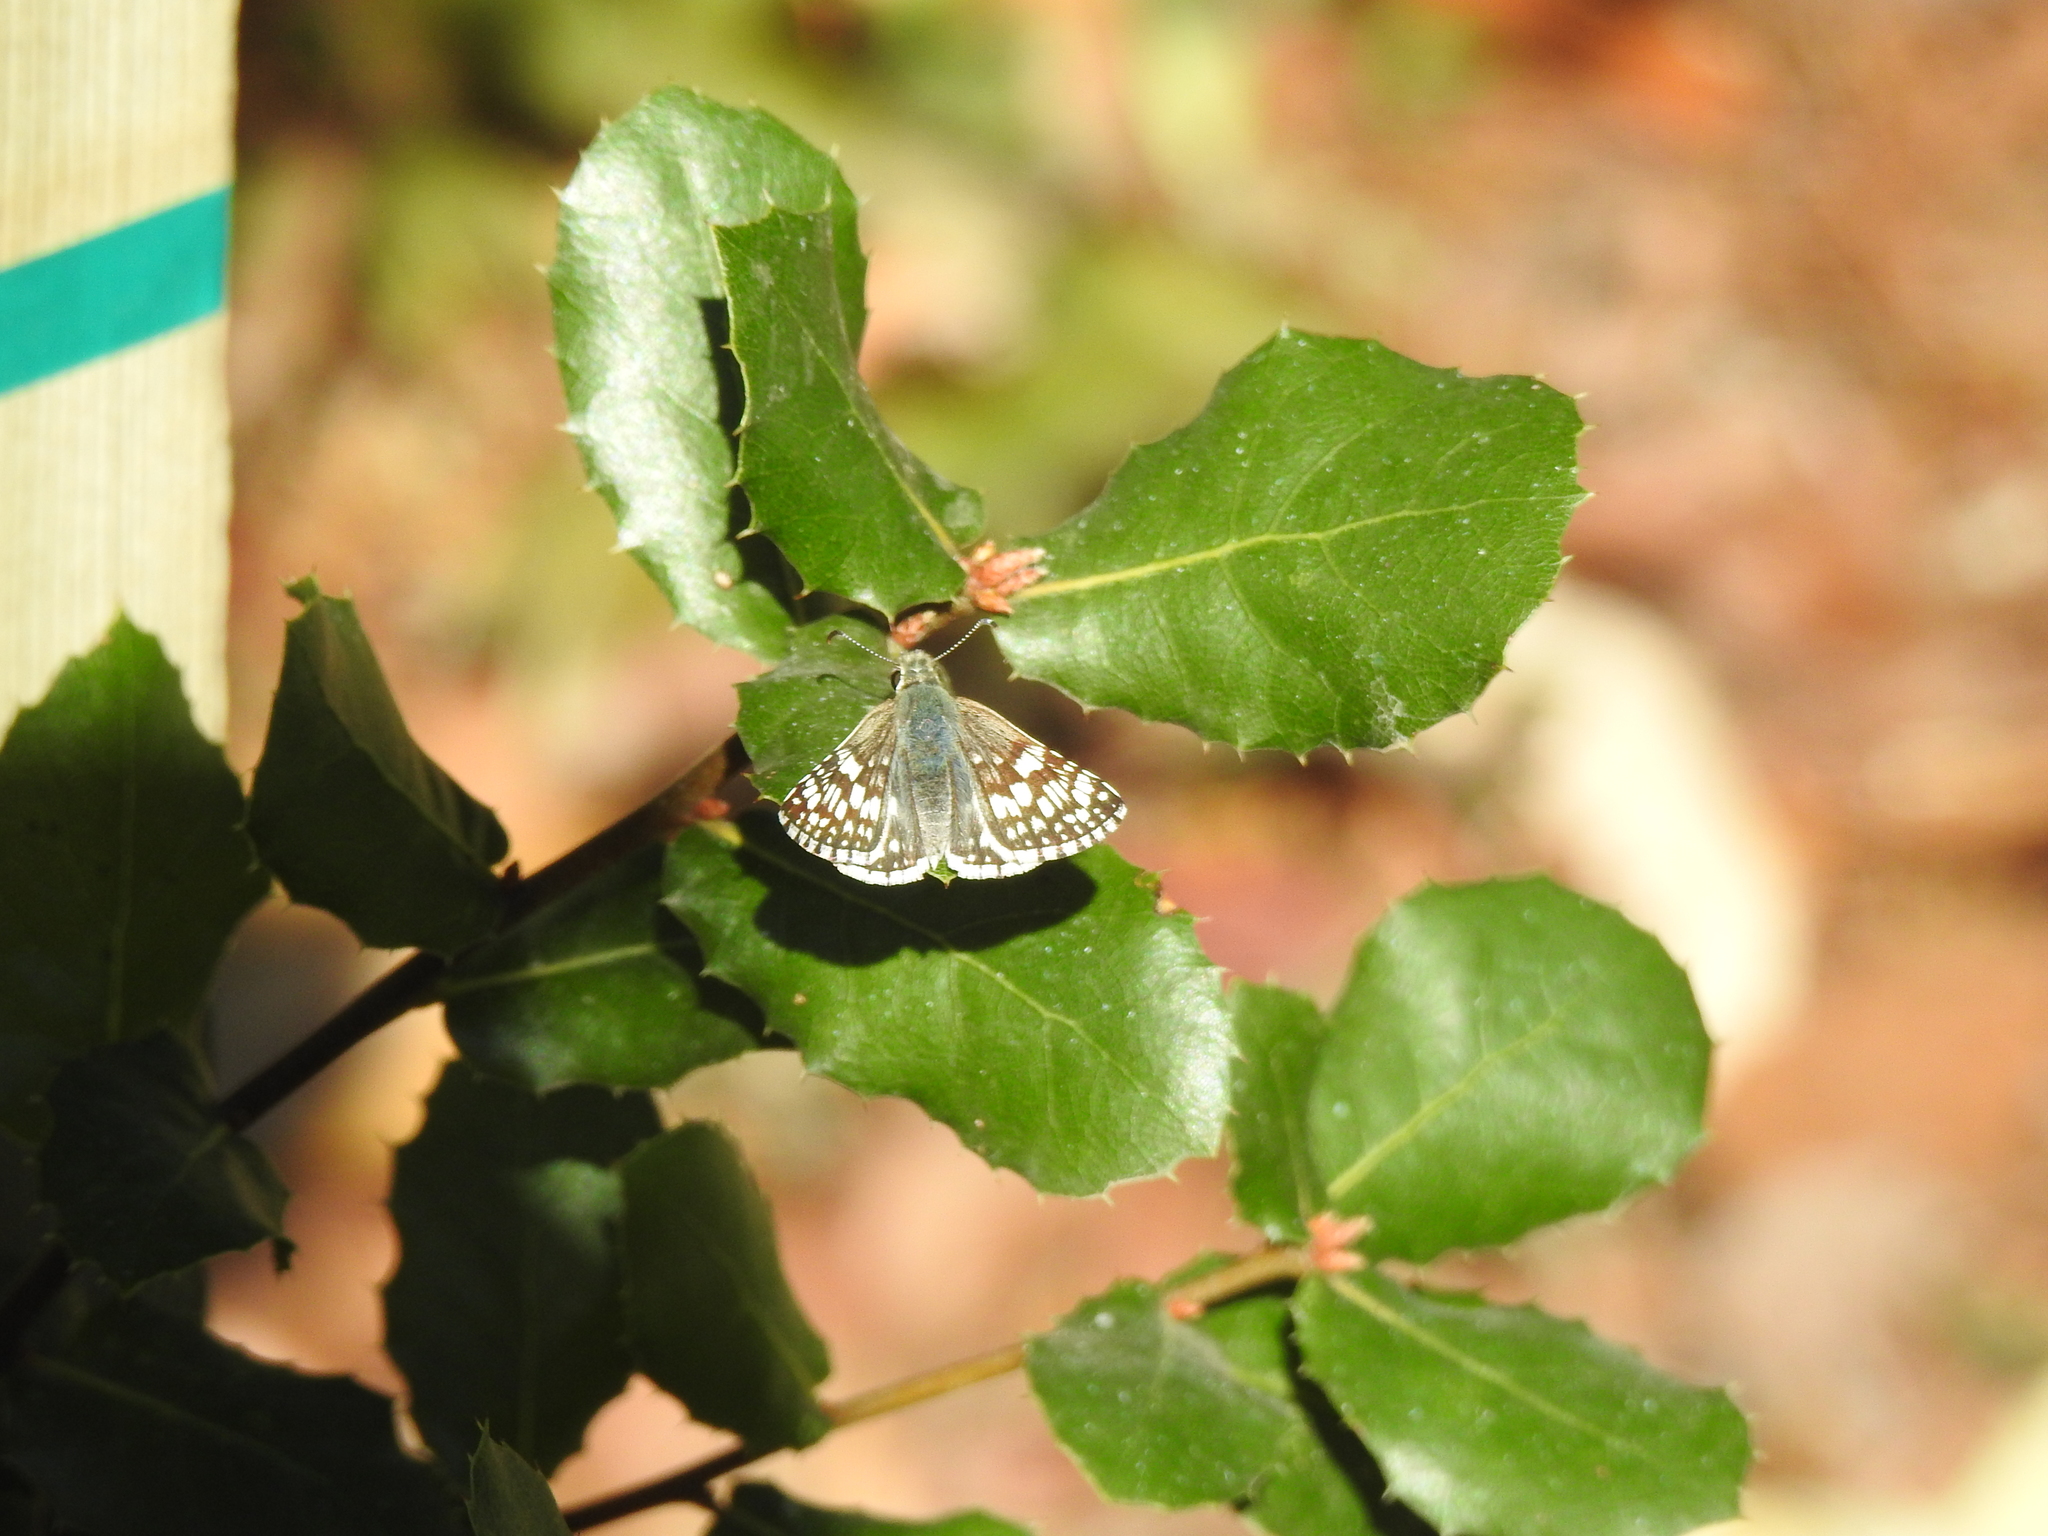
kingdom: Animalia
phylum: Arthropoda
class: Insecta
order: Lepidoptera
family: Hesperiidae
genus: Burnsius
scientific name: Burnsius communis
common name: Common checkered-skipper
